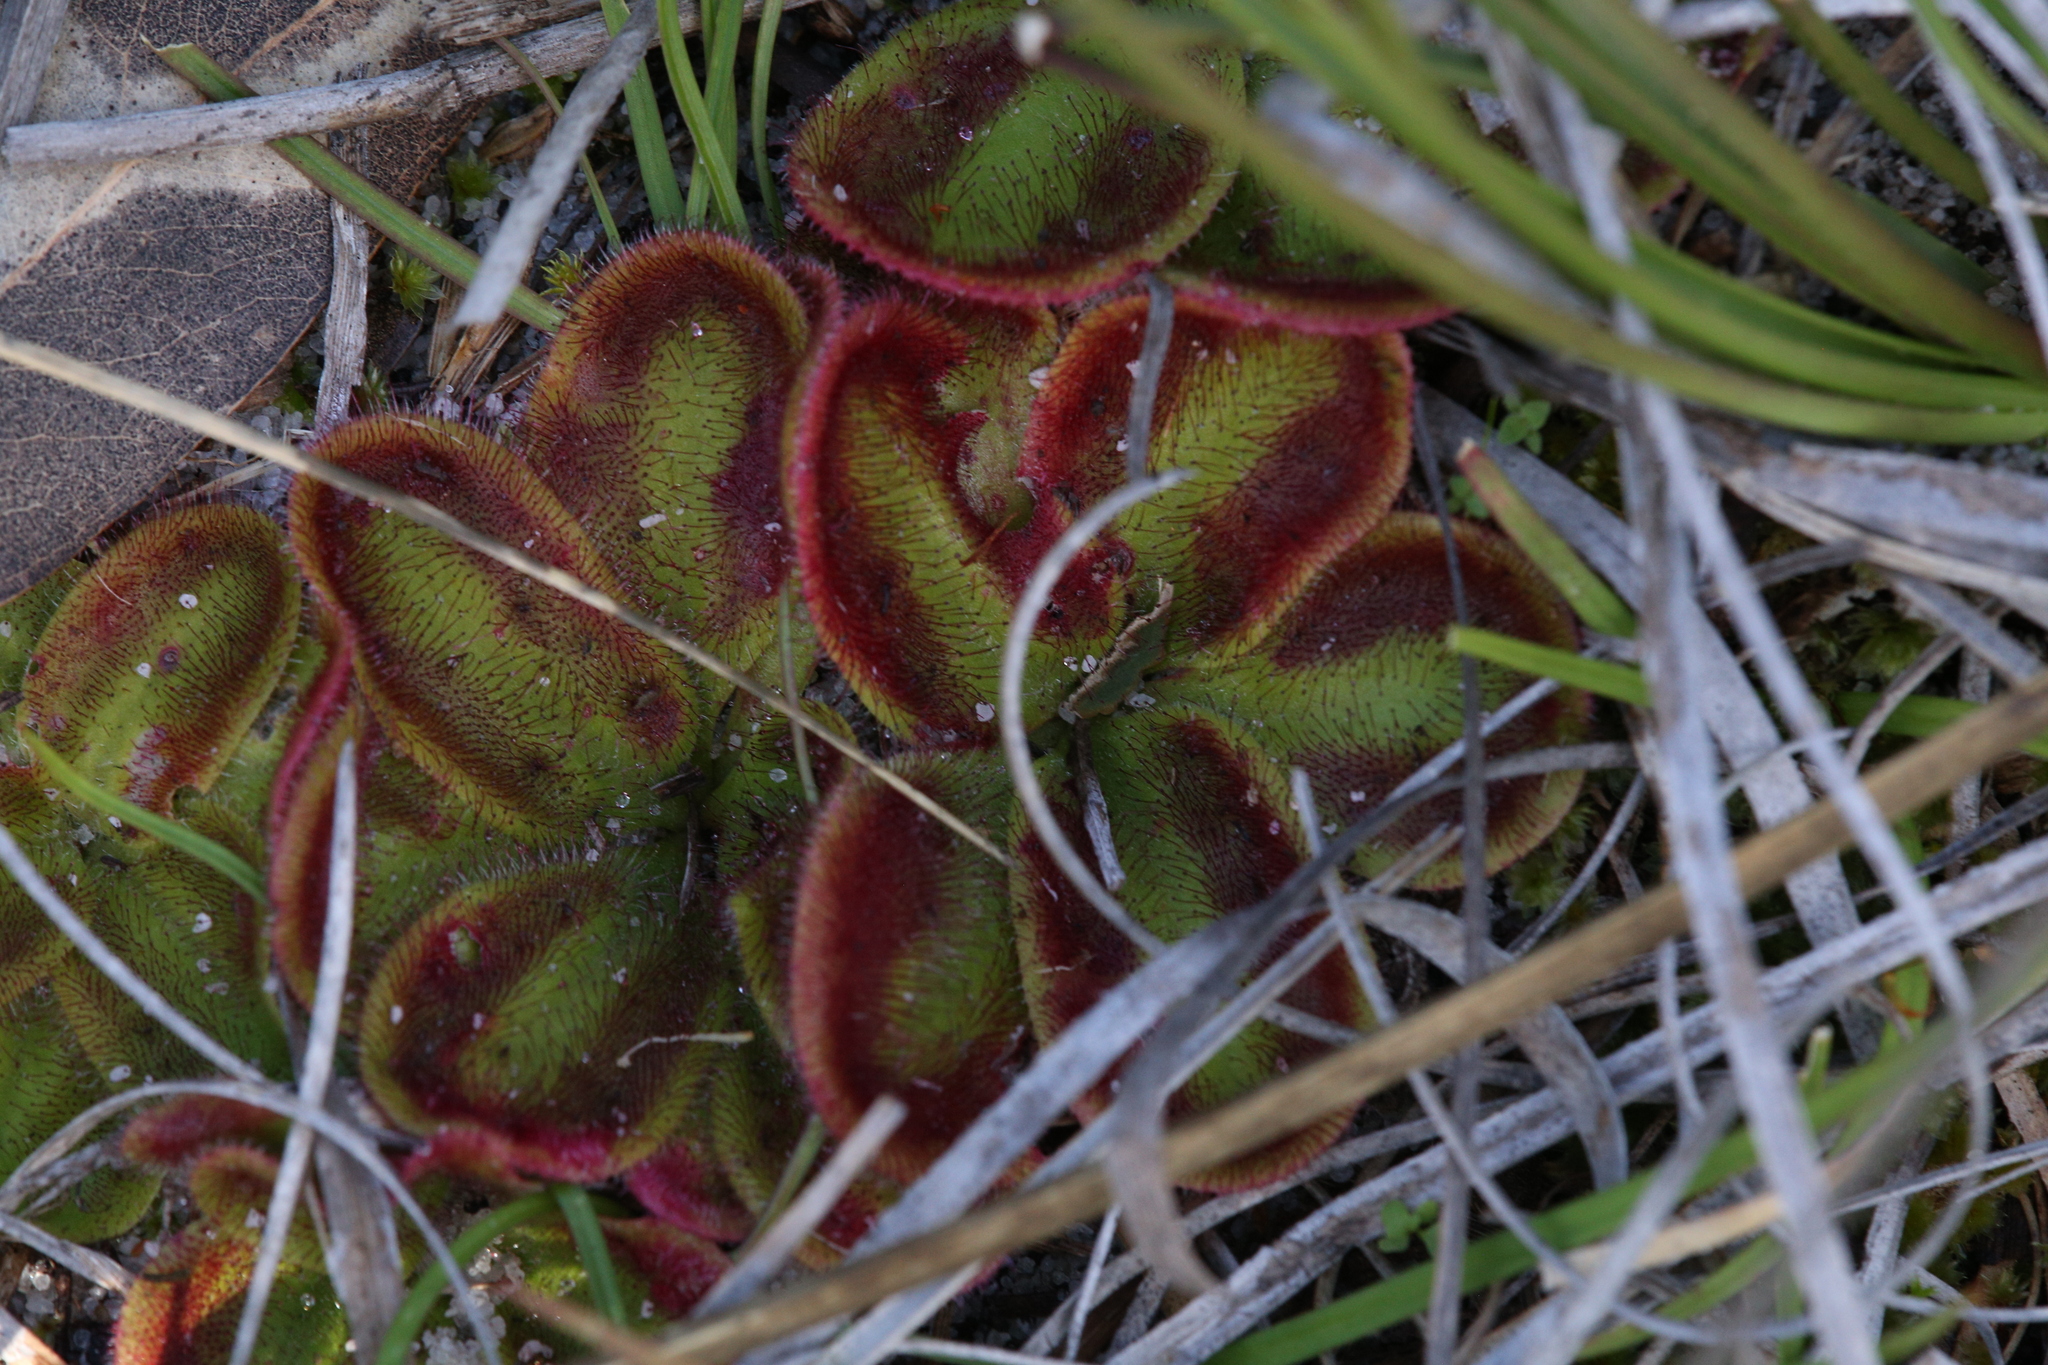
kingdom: Plantae
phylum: Tracheophyta
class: Magnoliopsida
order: Caryophyllales
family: Droseraceae
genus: Drosera
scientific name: Drosera erythrorhiza
